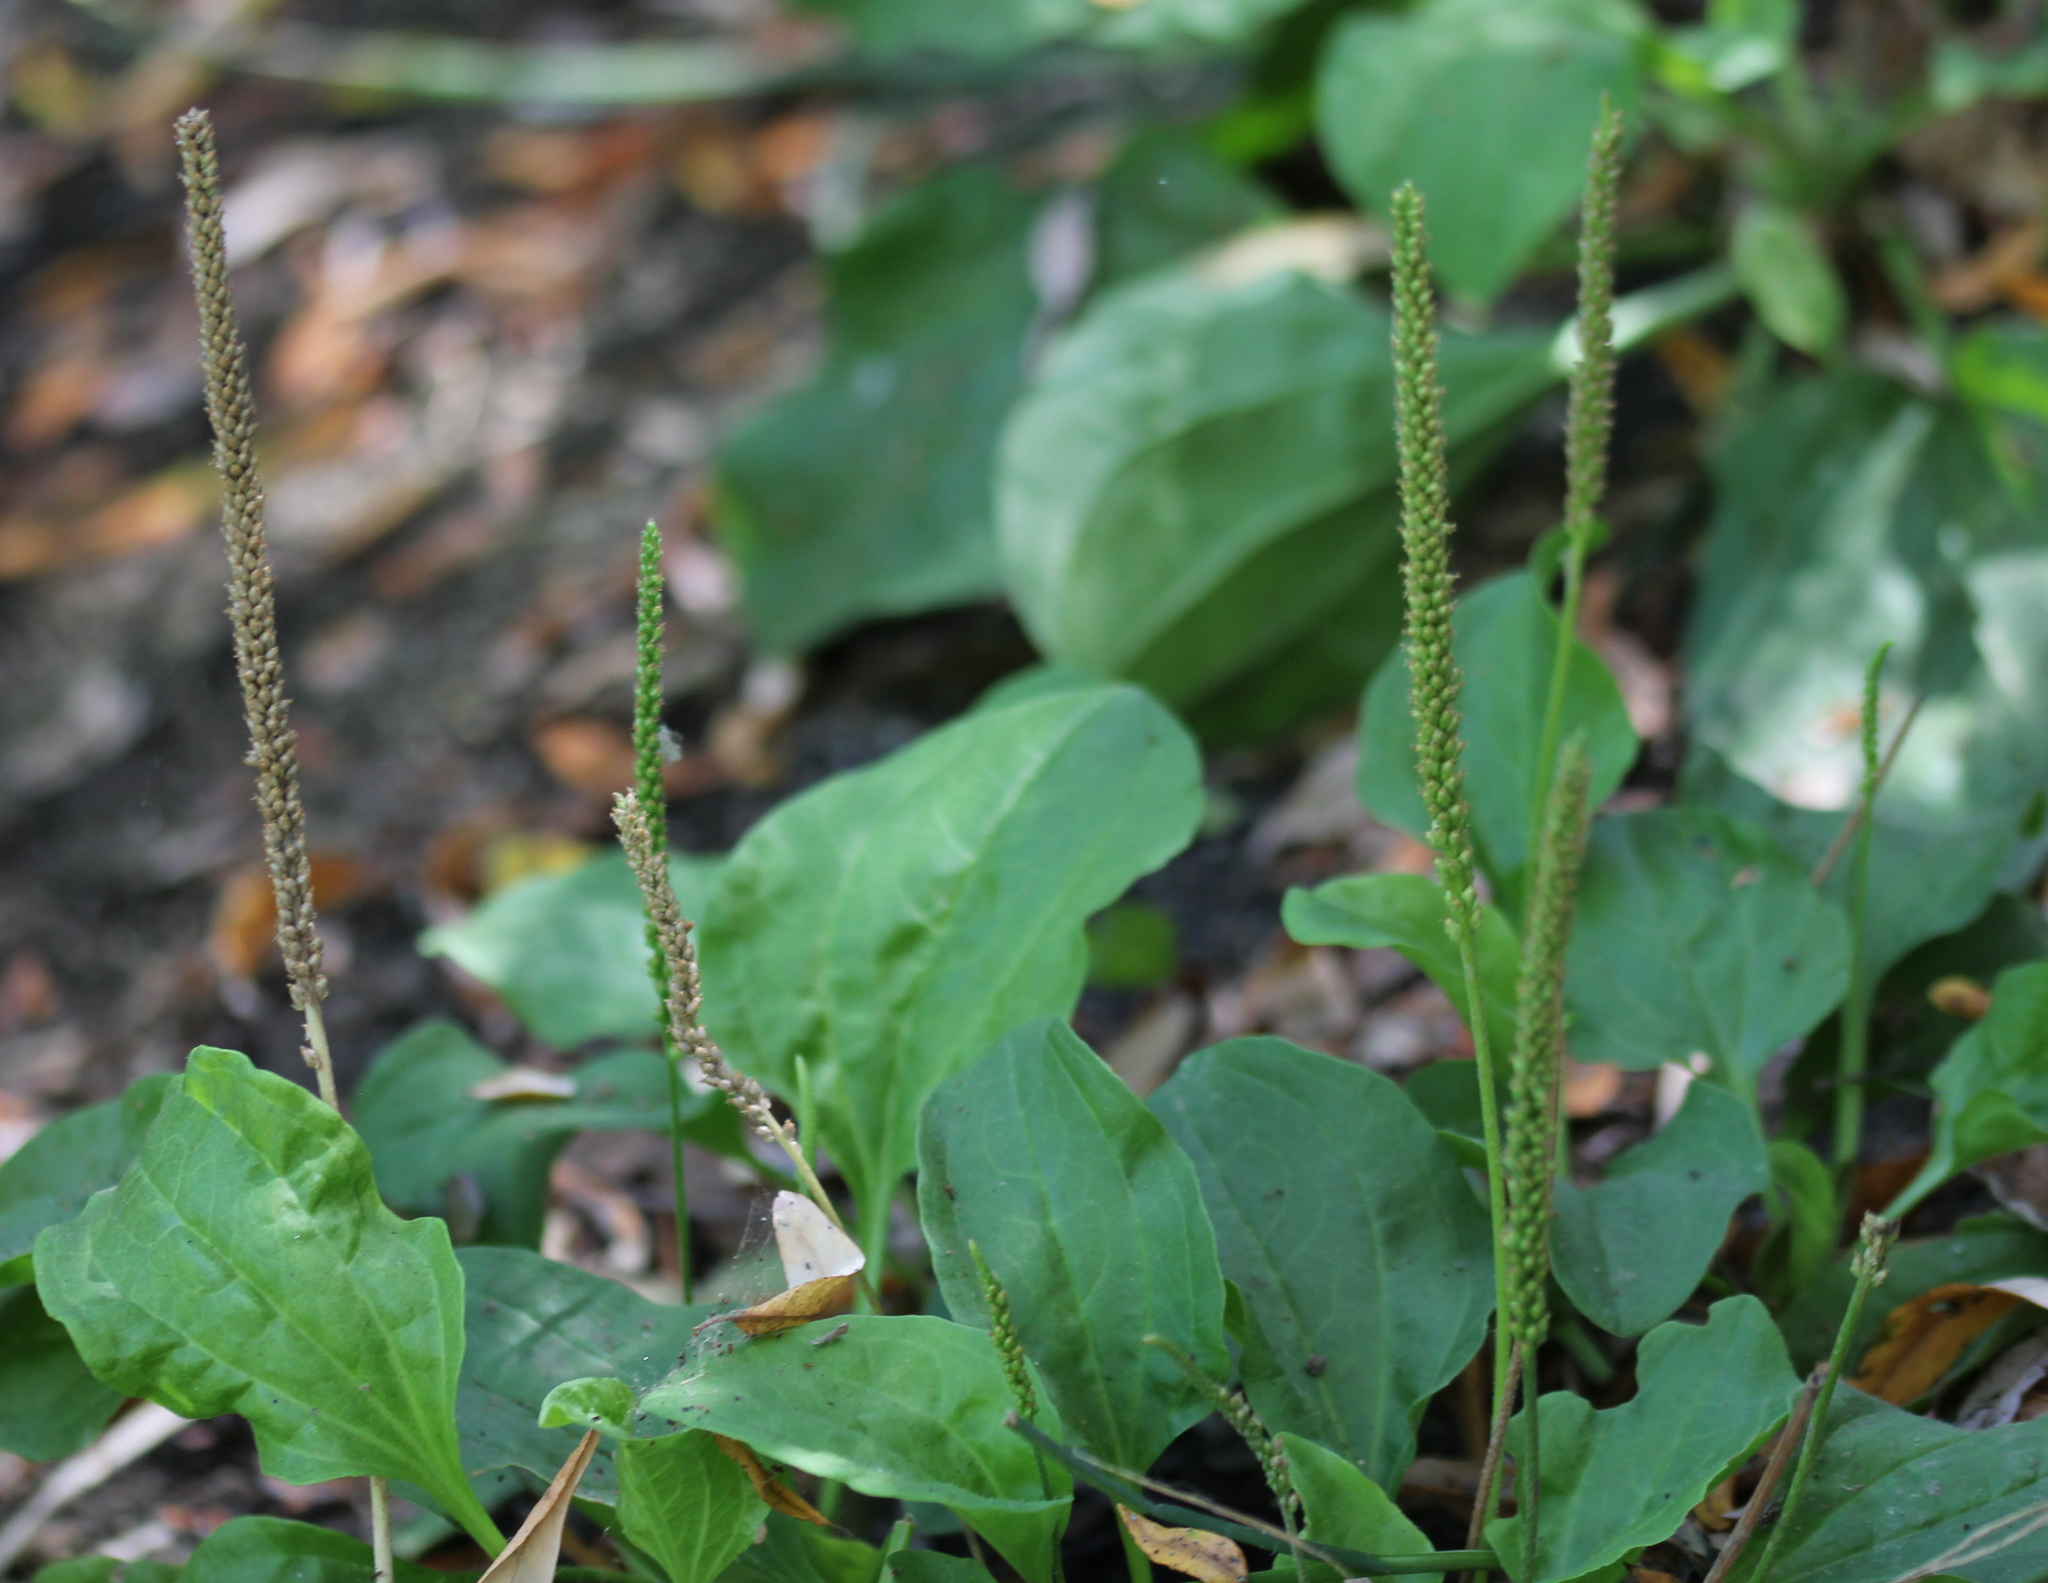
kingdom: Plantae
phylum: Tracheophyta
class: Magnoliopsida
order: Lamiales
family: Plantaginaceae
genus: Plantago
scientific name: Plantago major
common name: Common plantain
